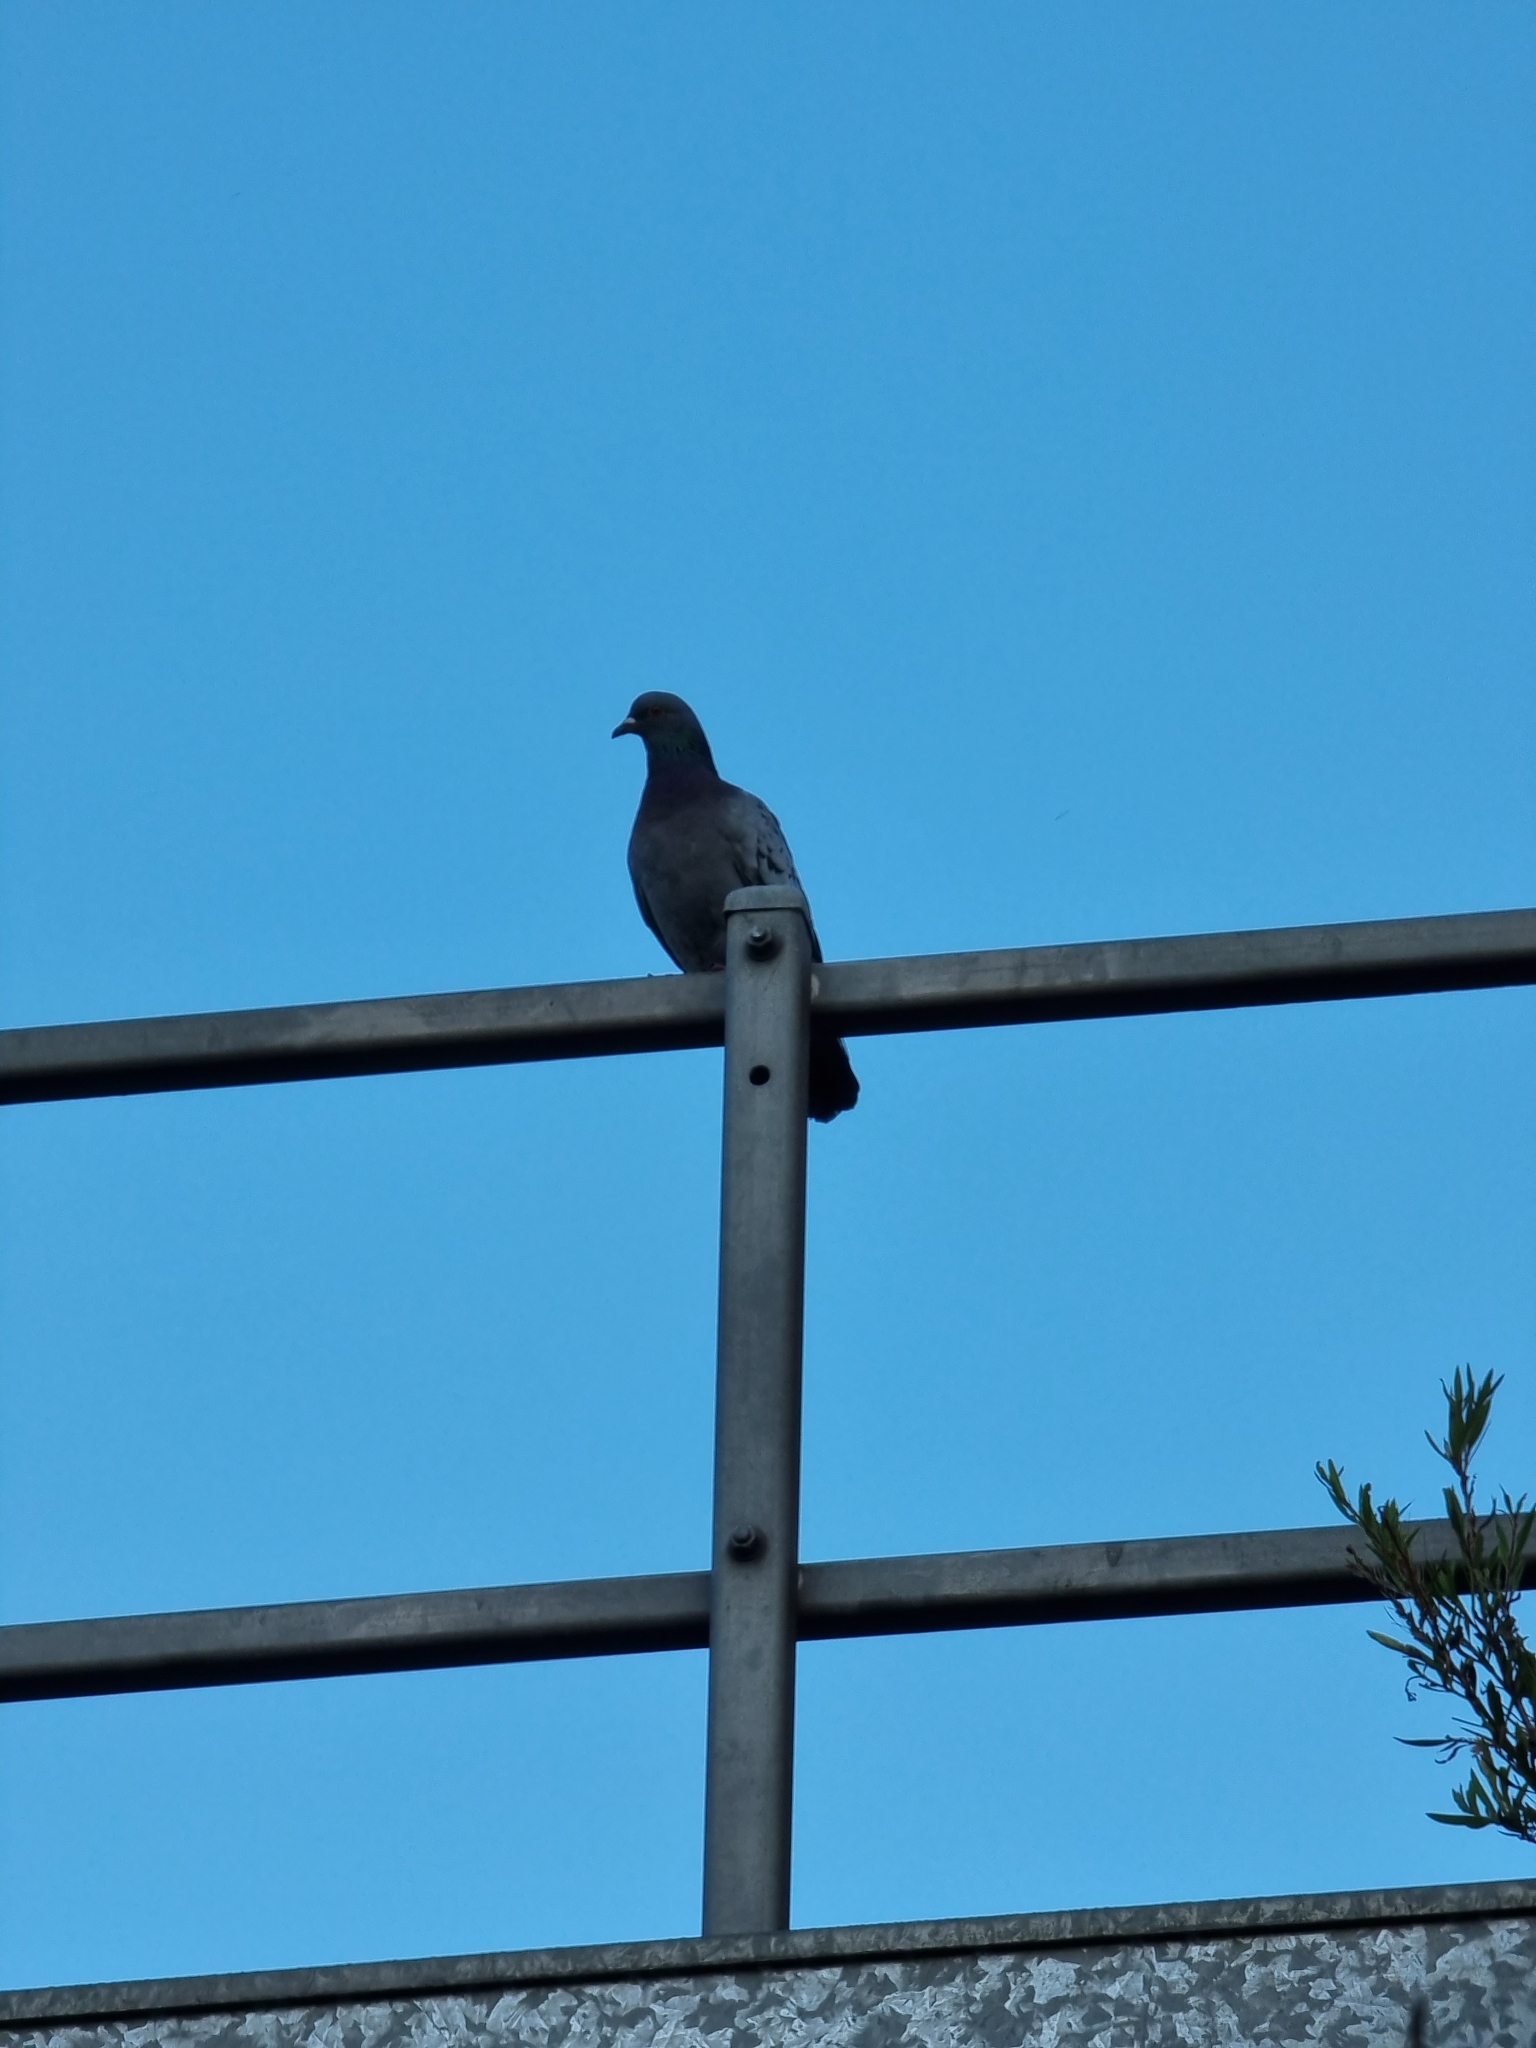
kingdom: Animalia
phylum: Chordata
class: Aves
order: Columbiformes
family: Columbidae
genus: Columba
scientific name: Columba livia
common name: Rock pigeon
